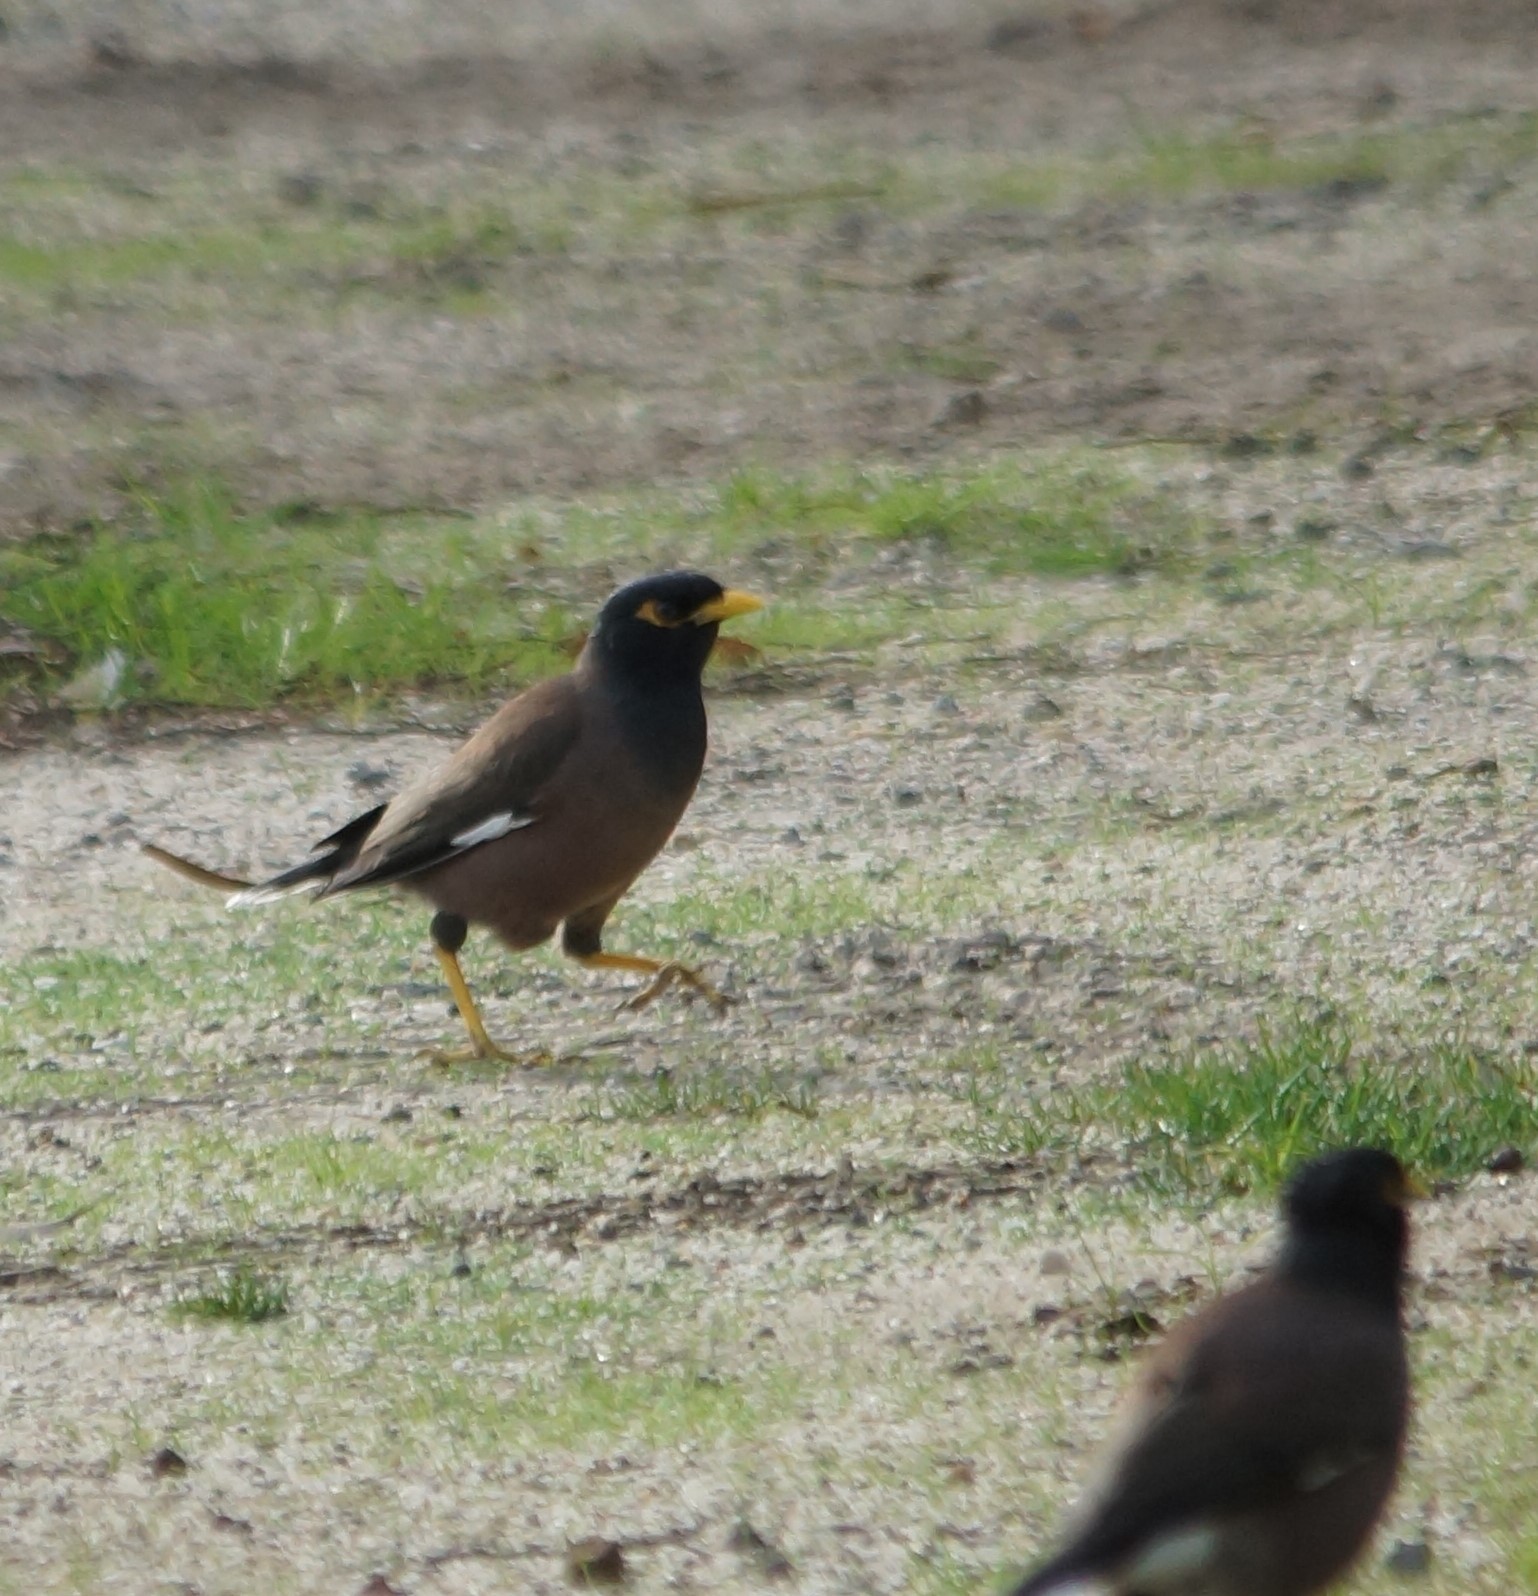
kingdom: Animalia
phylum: Chordata
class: Aves
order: Passeriformes
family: Sturnidae
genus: Acridotheres
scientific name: Acridotheres tristis
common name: Common myna
